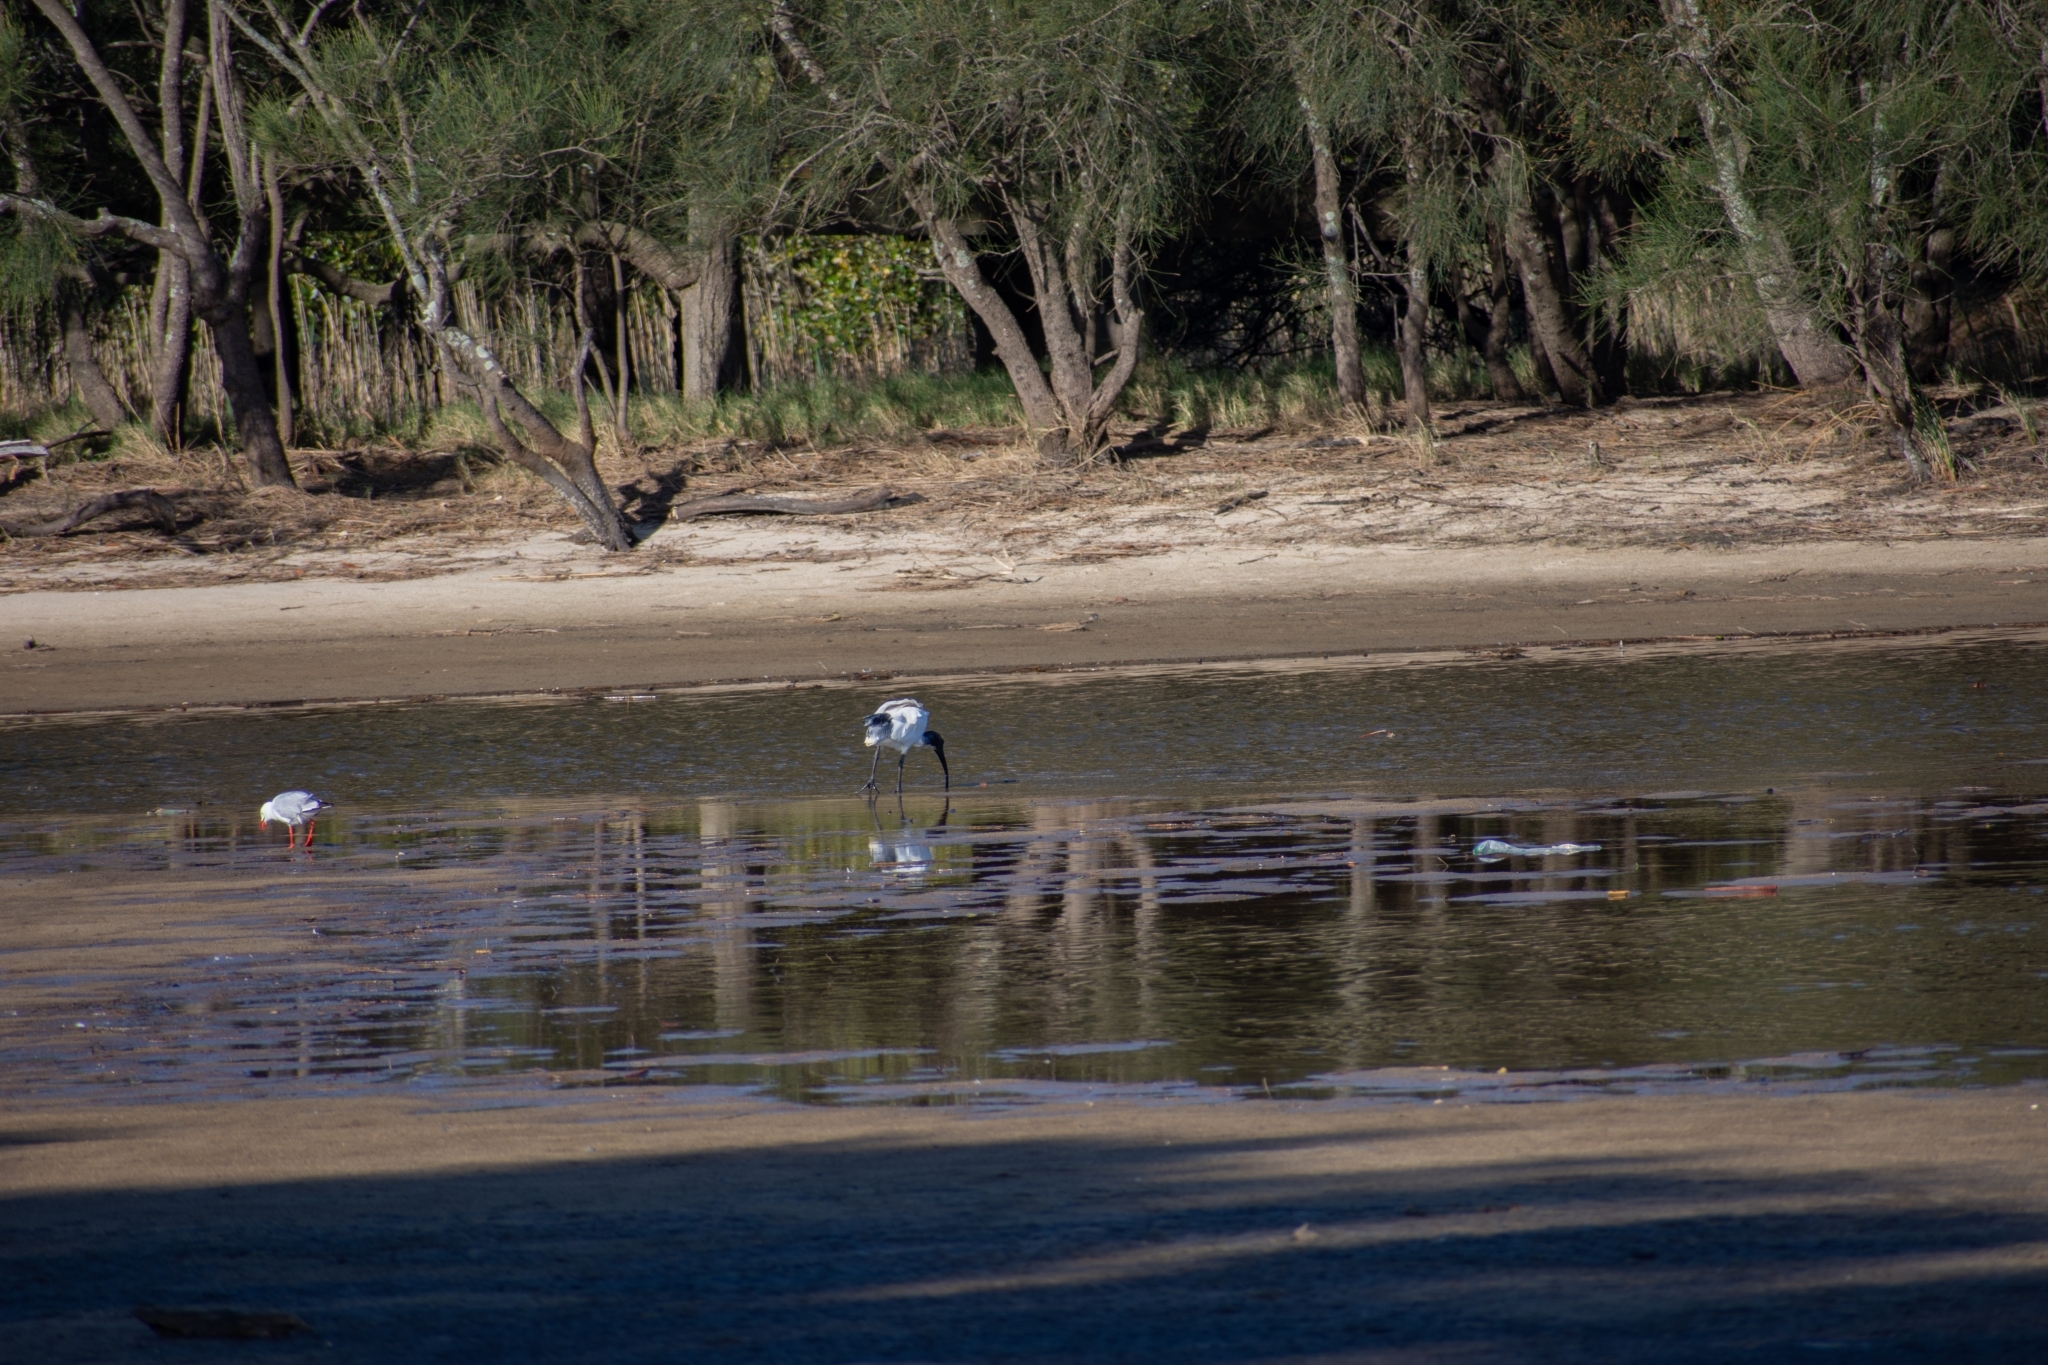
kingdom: Animalia
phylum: Chordata
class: Aves
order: Pelecaniformes
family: Threskiornithidae
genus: Threskiornis
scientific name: Threskiornis molucca
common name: Australian white ibis
